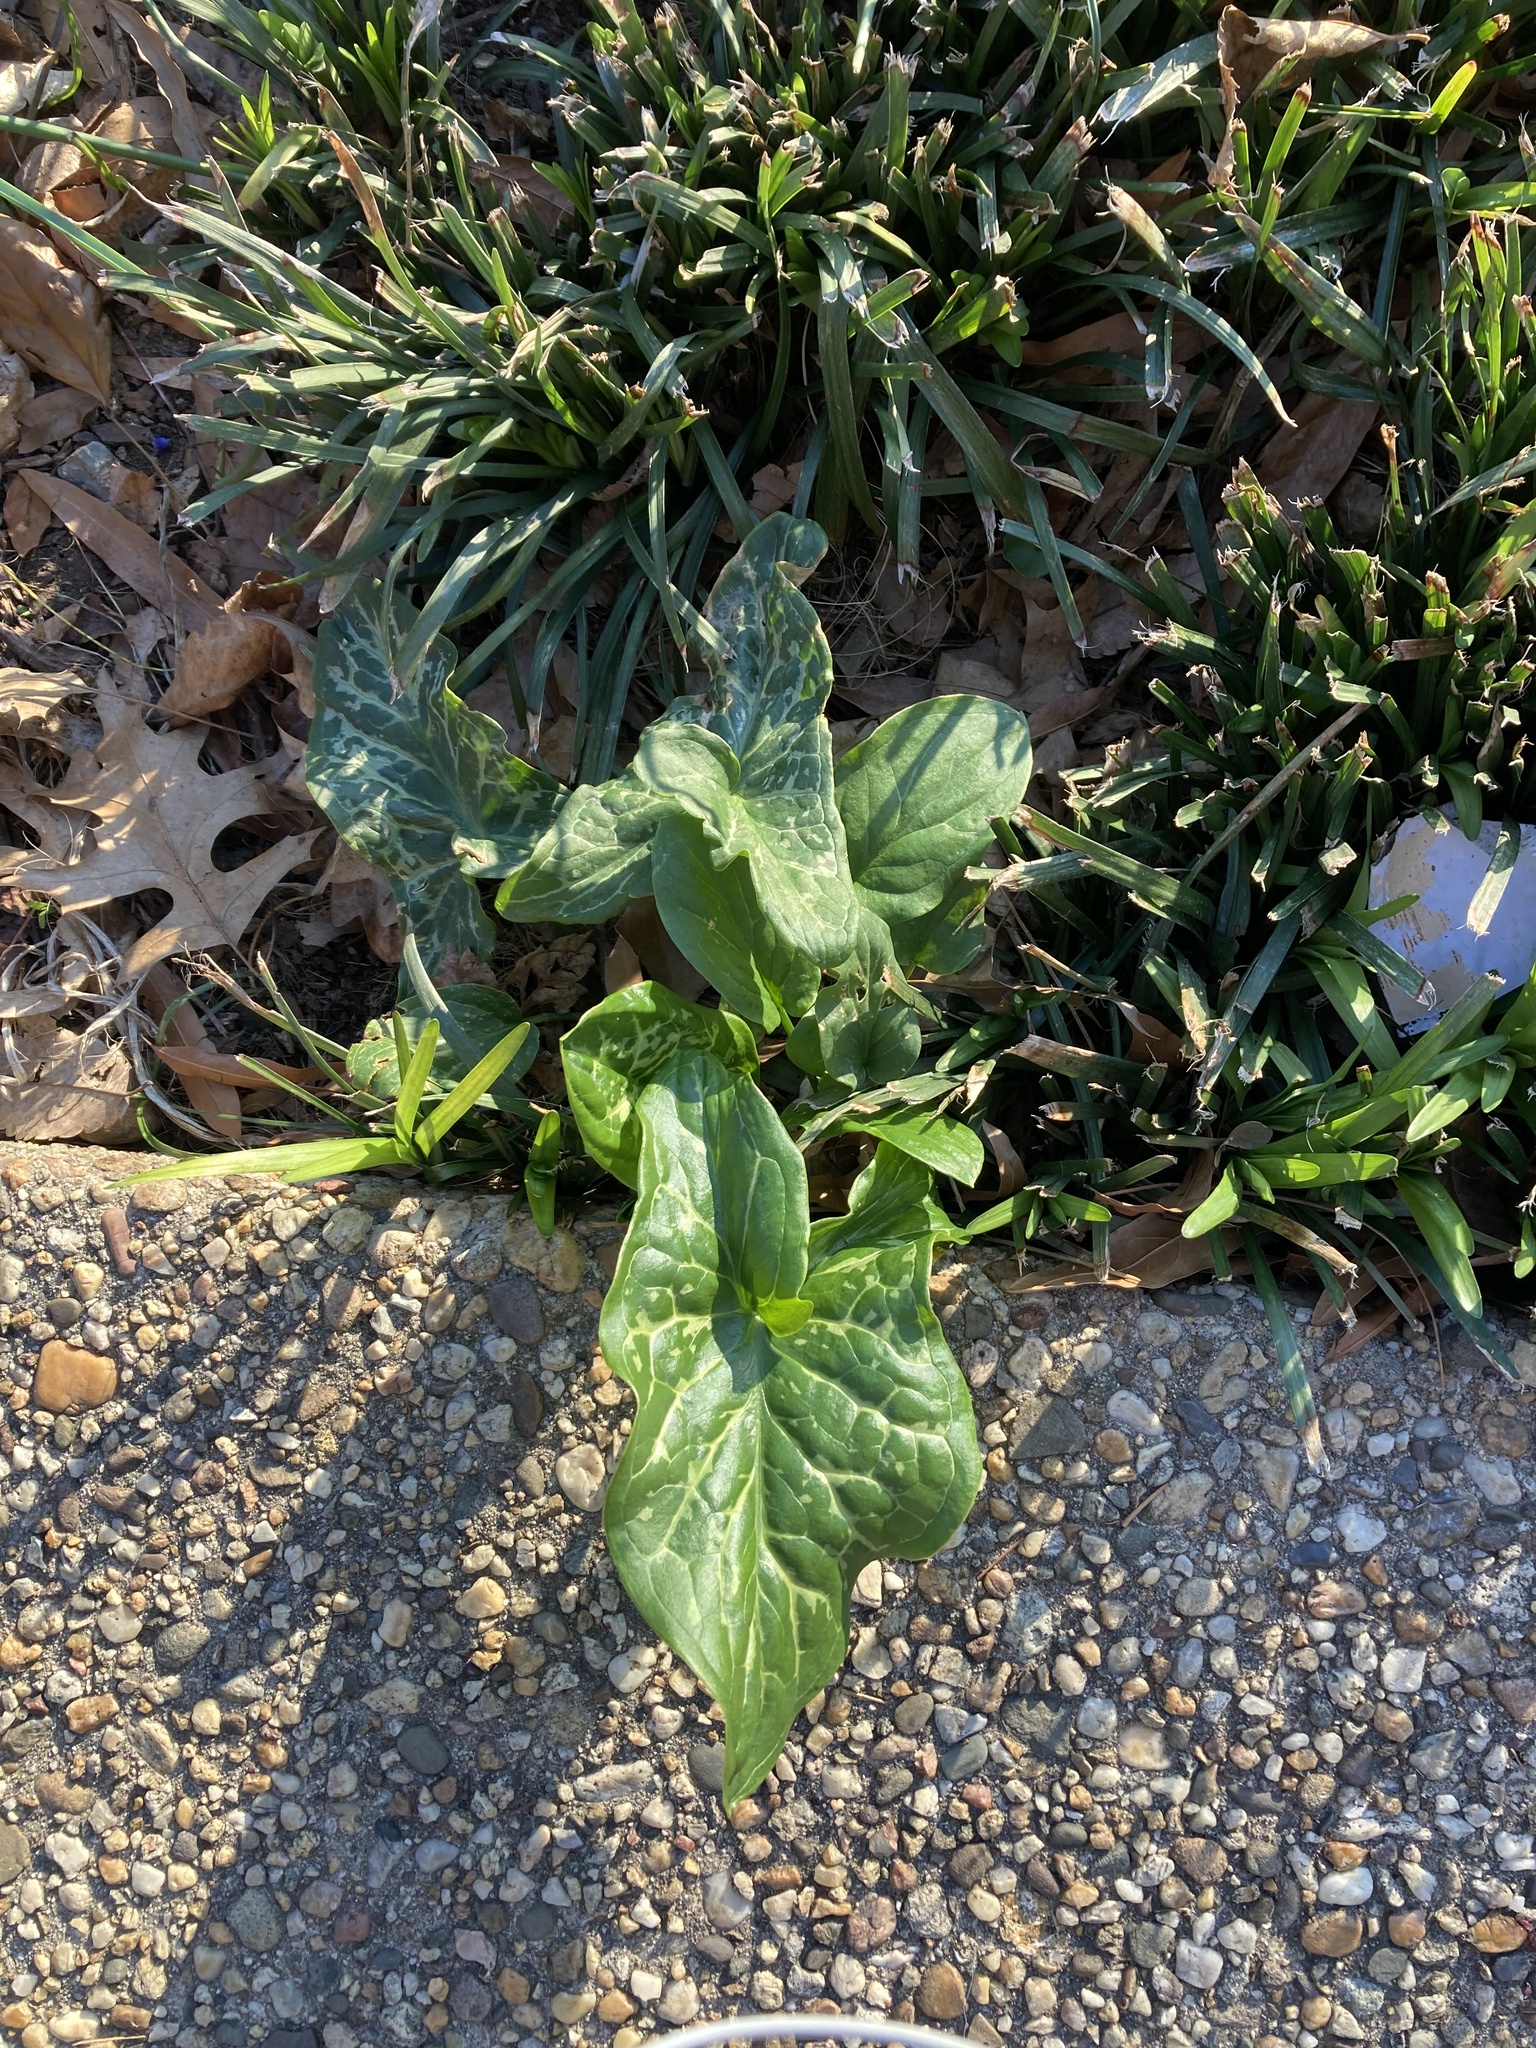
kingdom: Plantae
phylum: Tracheophyta
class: Liliopsida
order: Alismatales
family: Araceae
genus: Arum
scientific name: Arum italicum
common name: Italian lords-and-ladies
